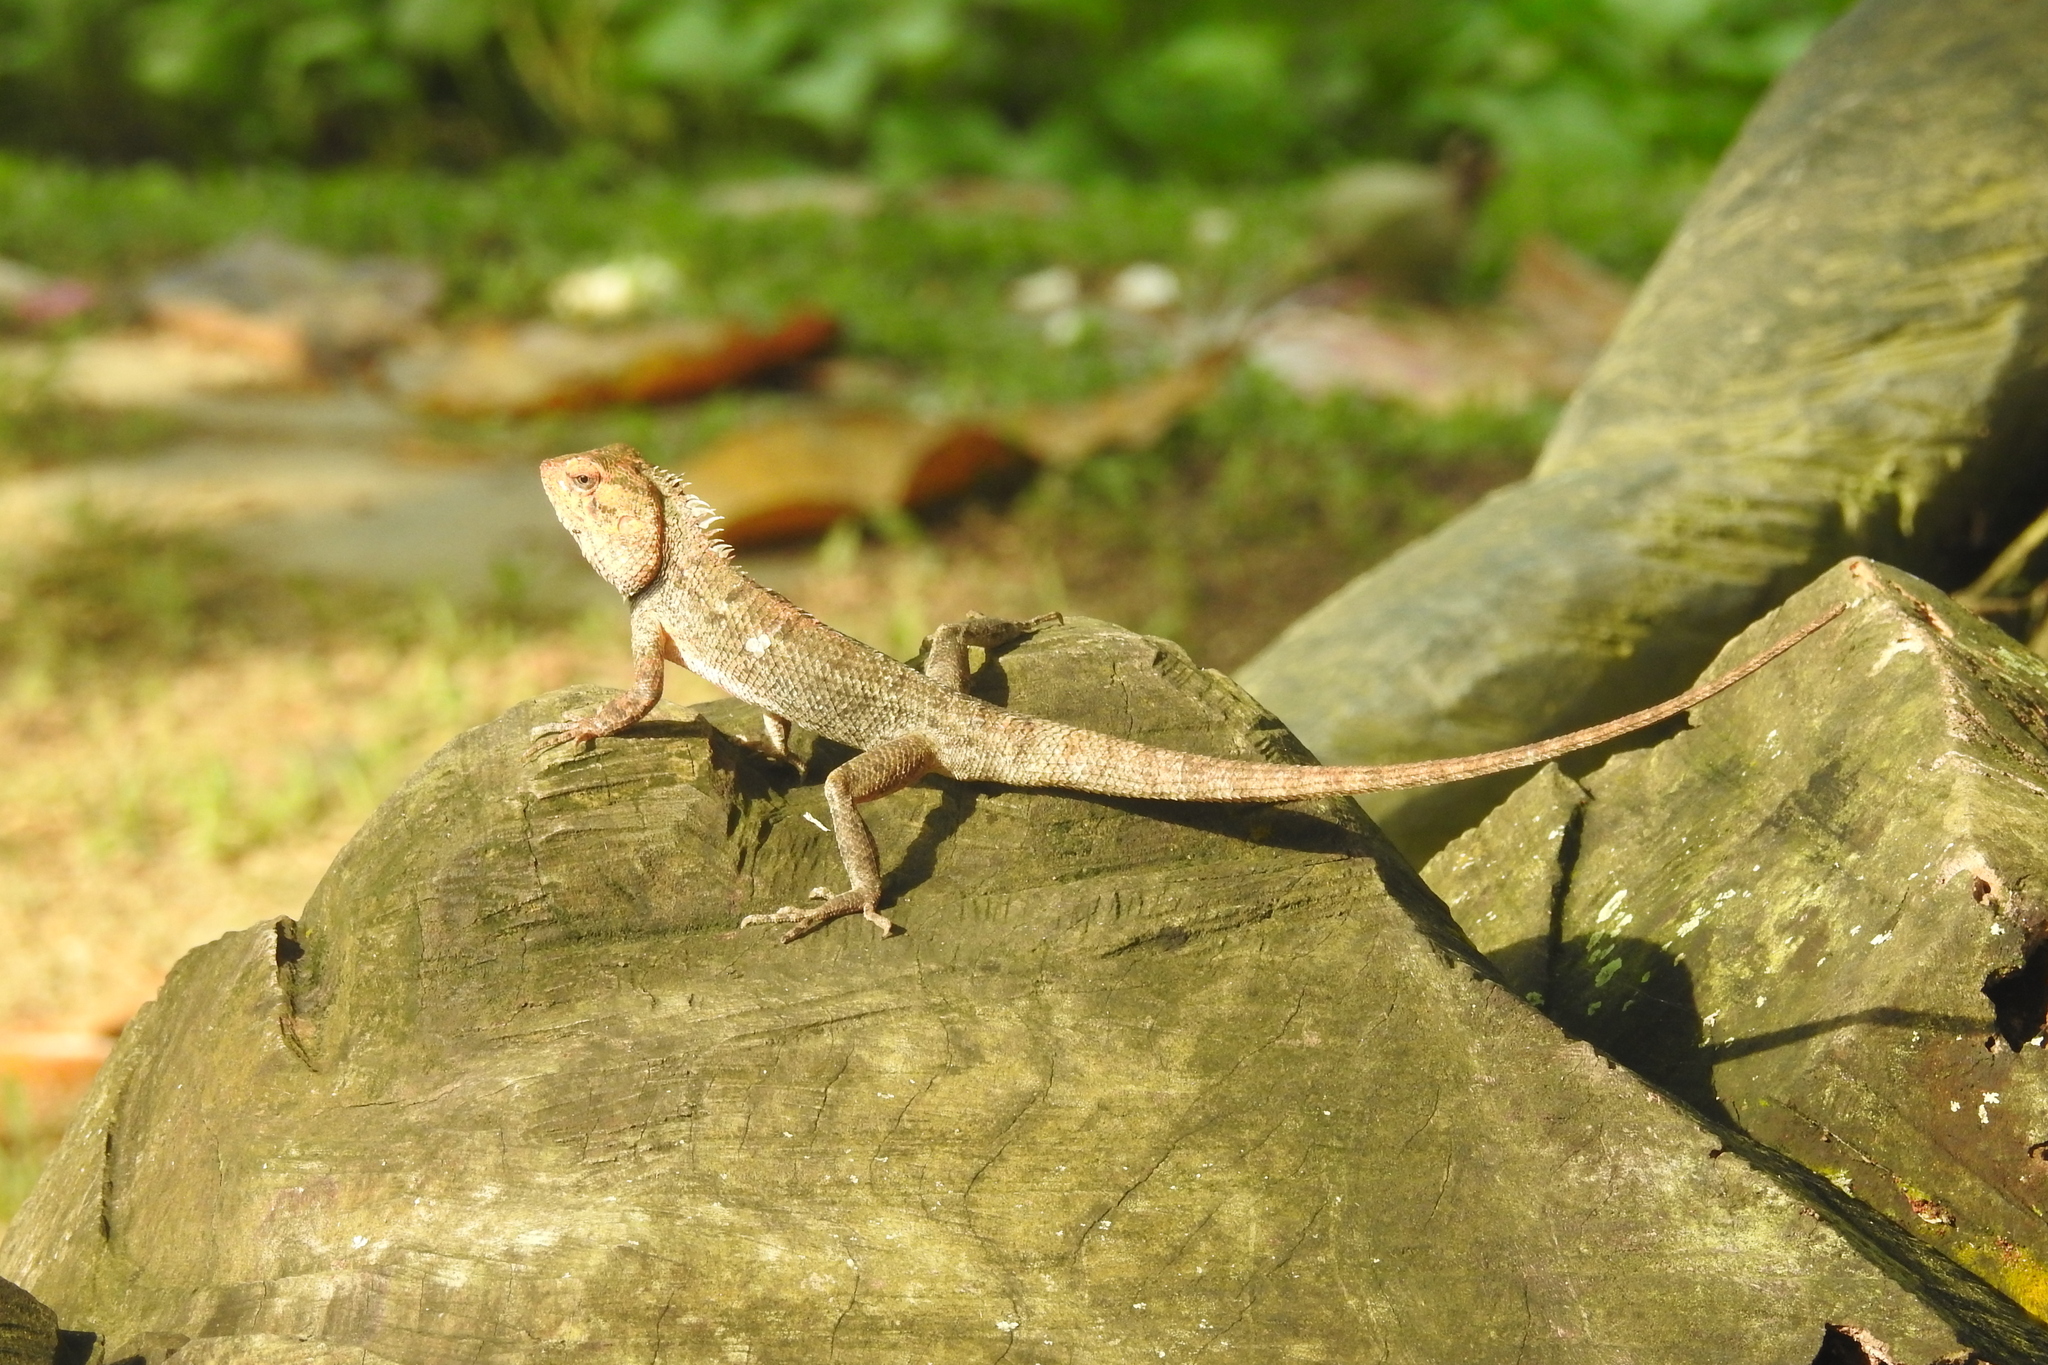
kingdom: Animalia
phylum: Chordata
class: Squamata
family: Agamidae
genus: Calotes
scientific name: Calotes versicolor
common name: Oriental garden lizard
